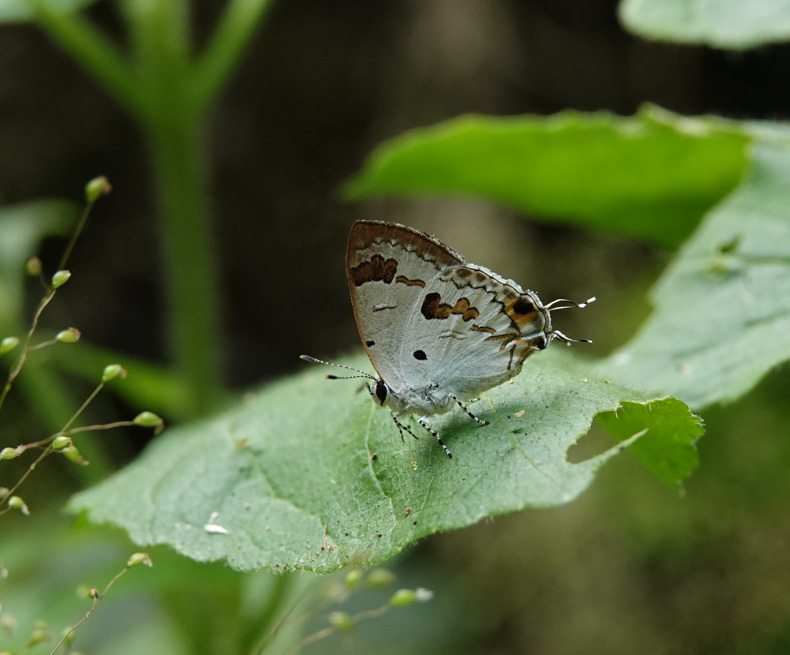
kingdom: Animalia
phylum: Arthropoda
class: Insecta
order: Lepidoptera
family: Lycaenidae
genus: Chliaria
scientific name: Chliaria othona
